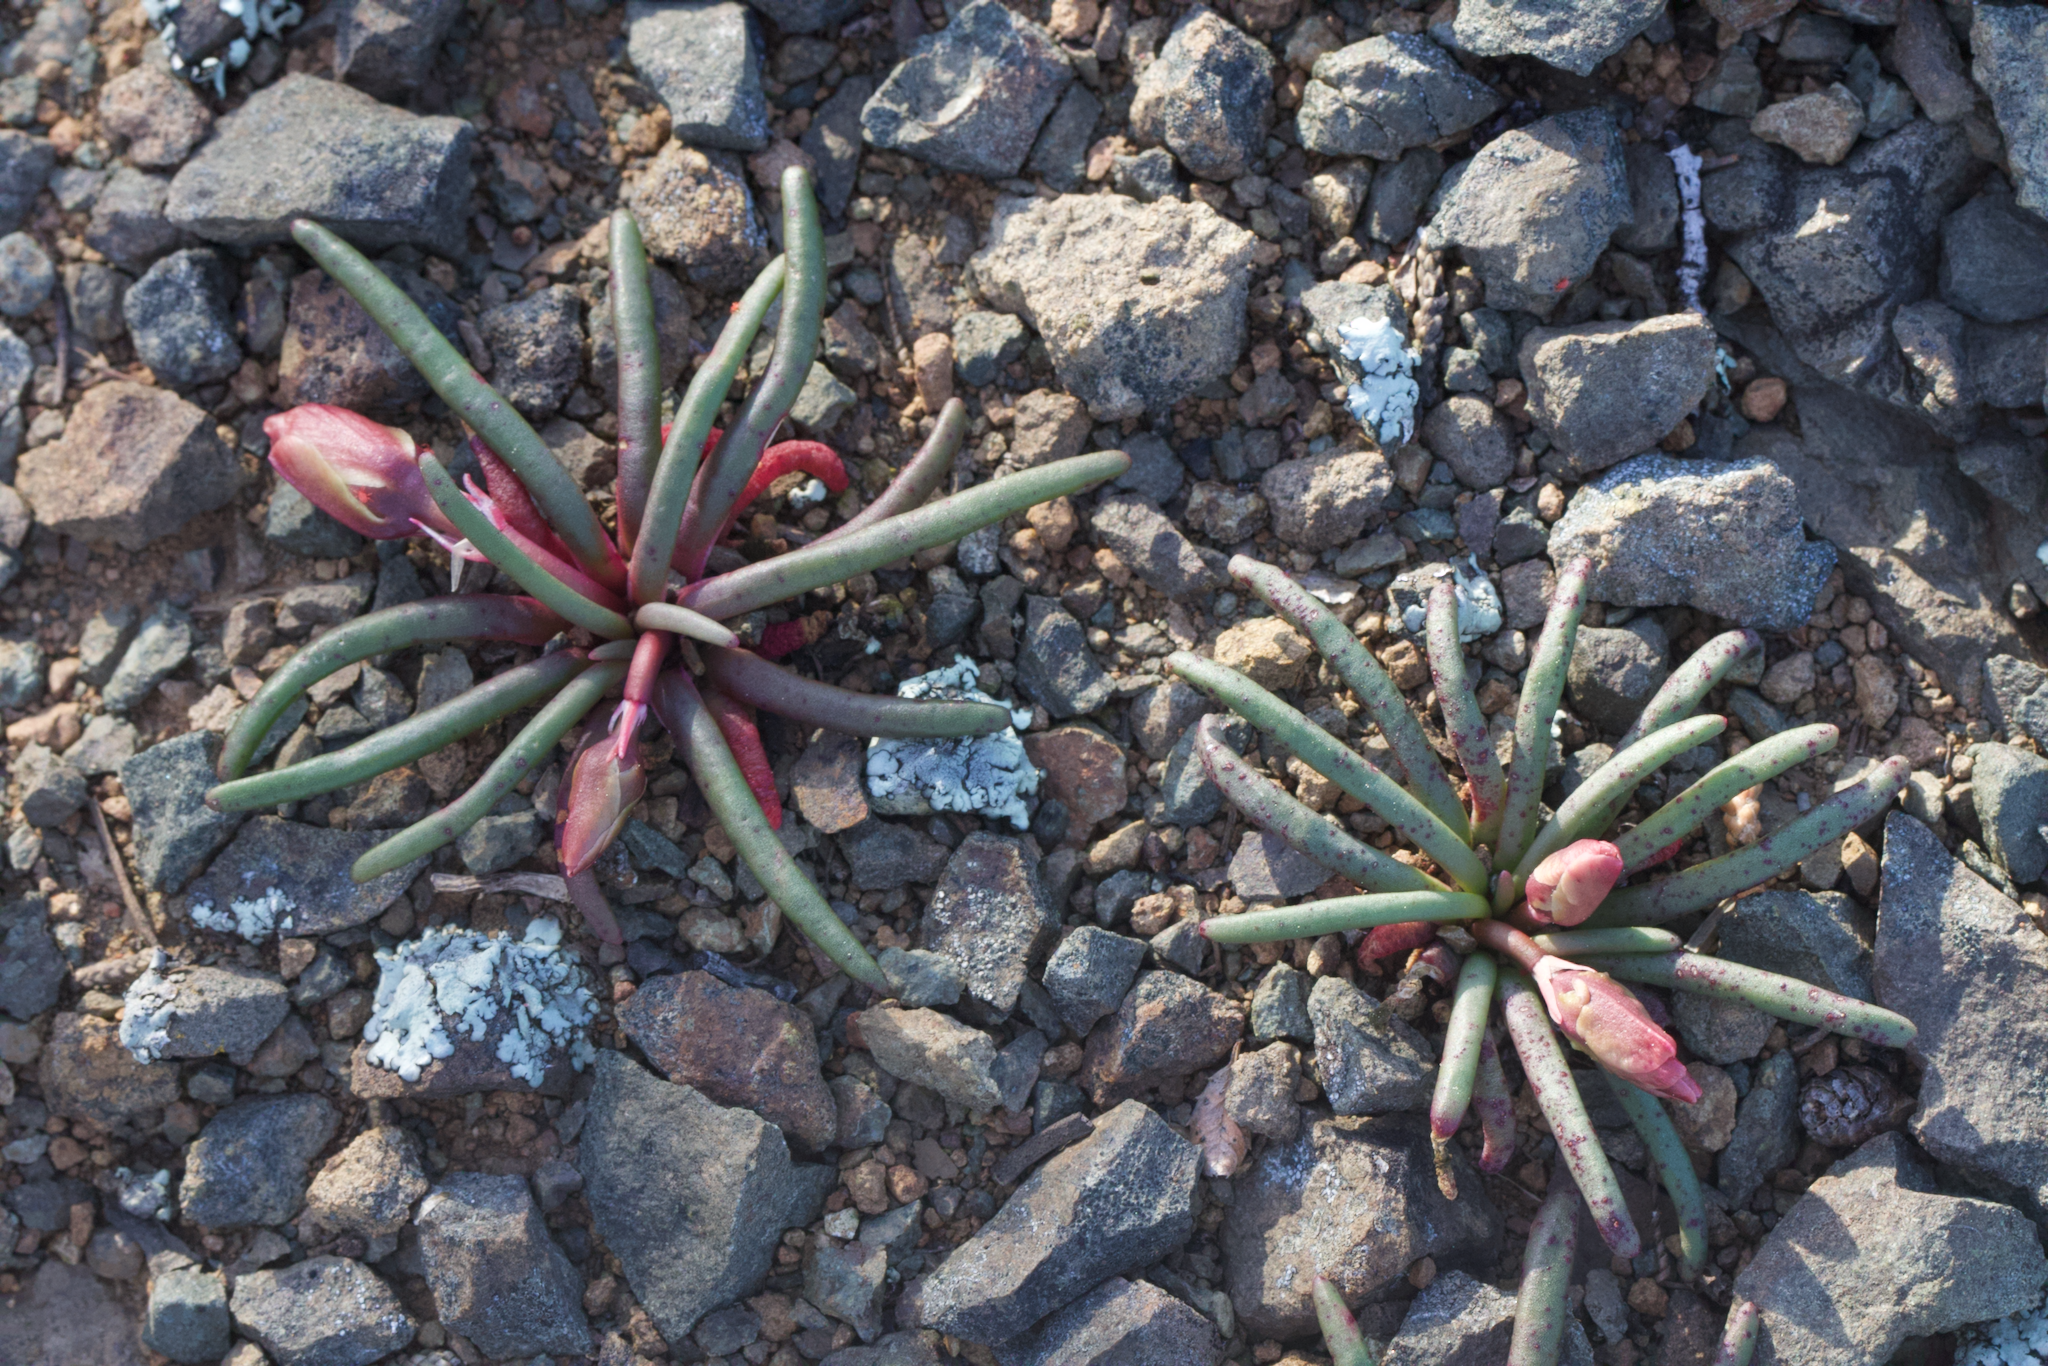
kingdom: Plantae
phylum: Tracheophyta
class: Magnoliopsida
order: Caryophyllales
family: Montiaceae
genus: Lewisia
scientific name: Lewisia rediviva
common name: Bitter-root
